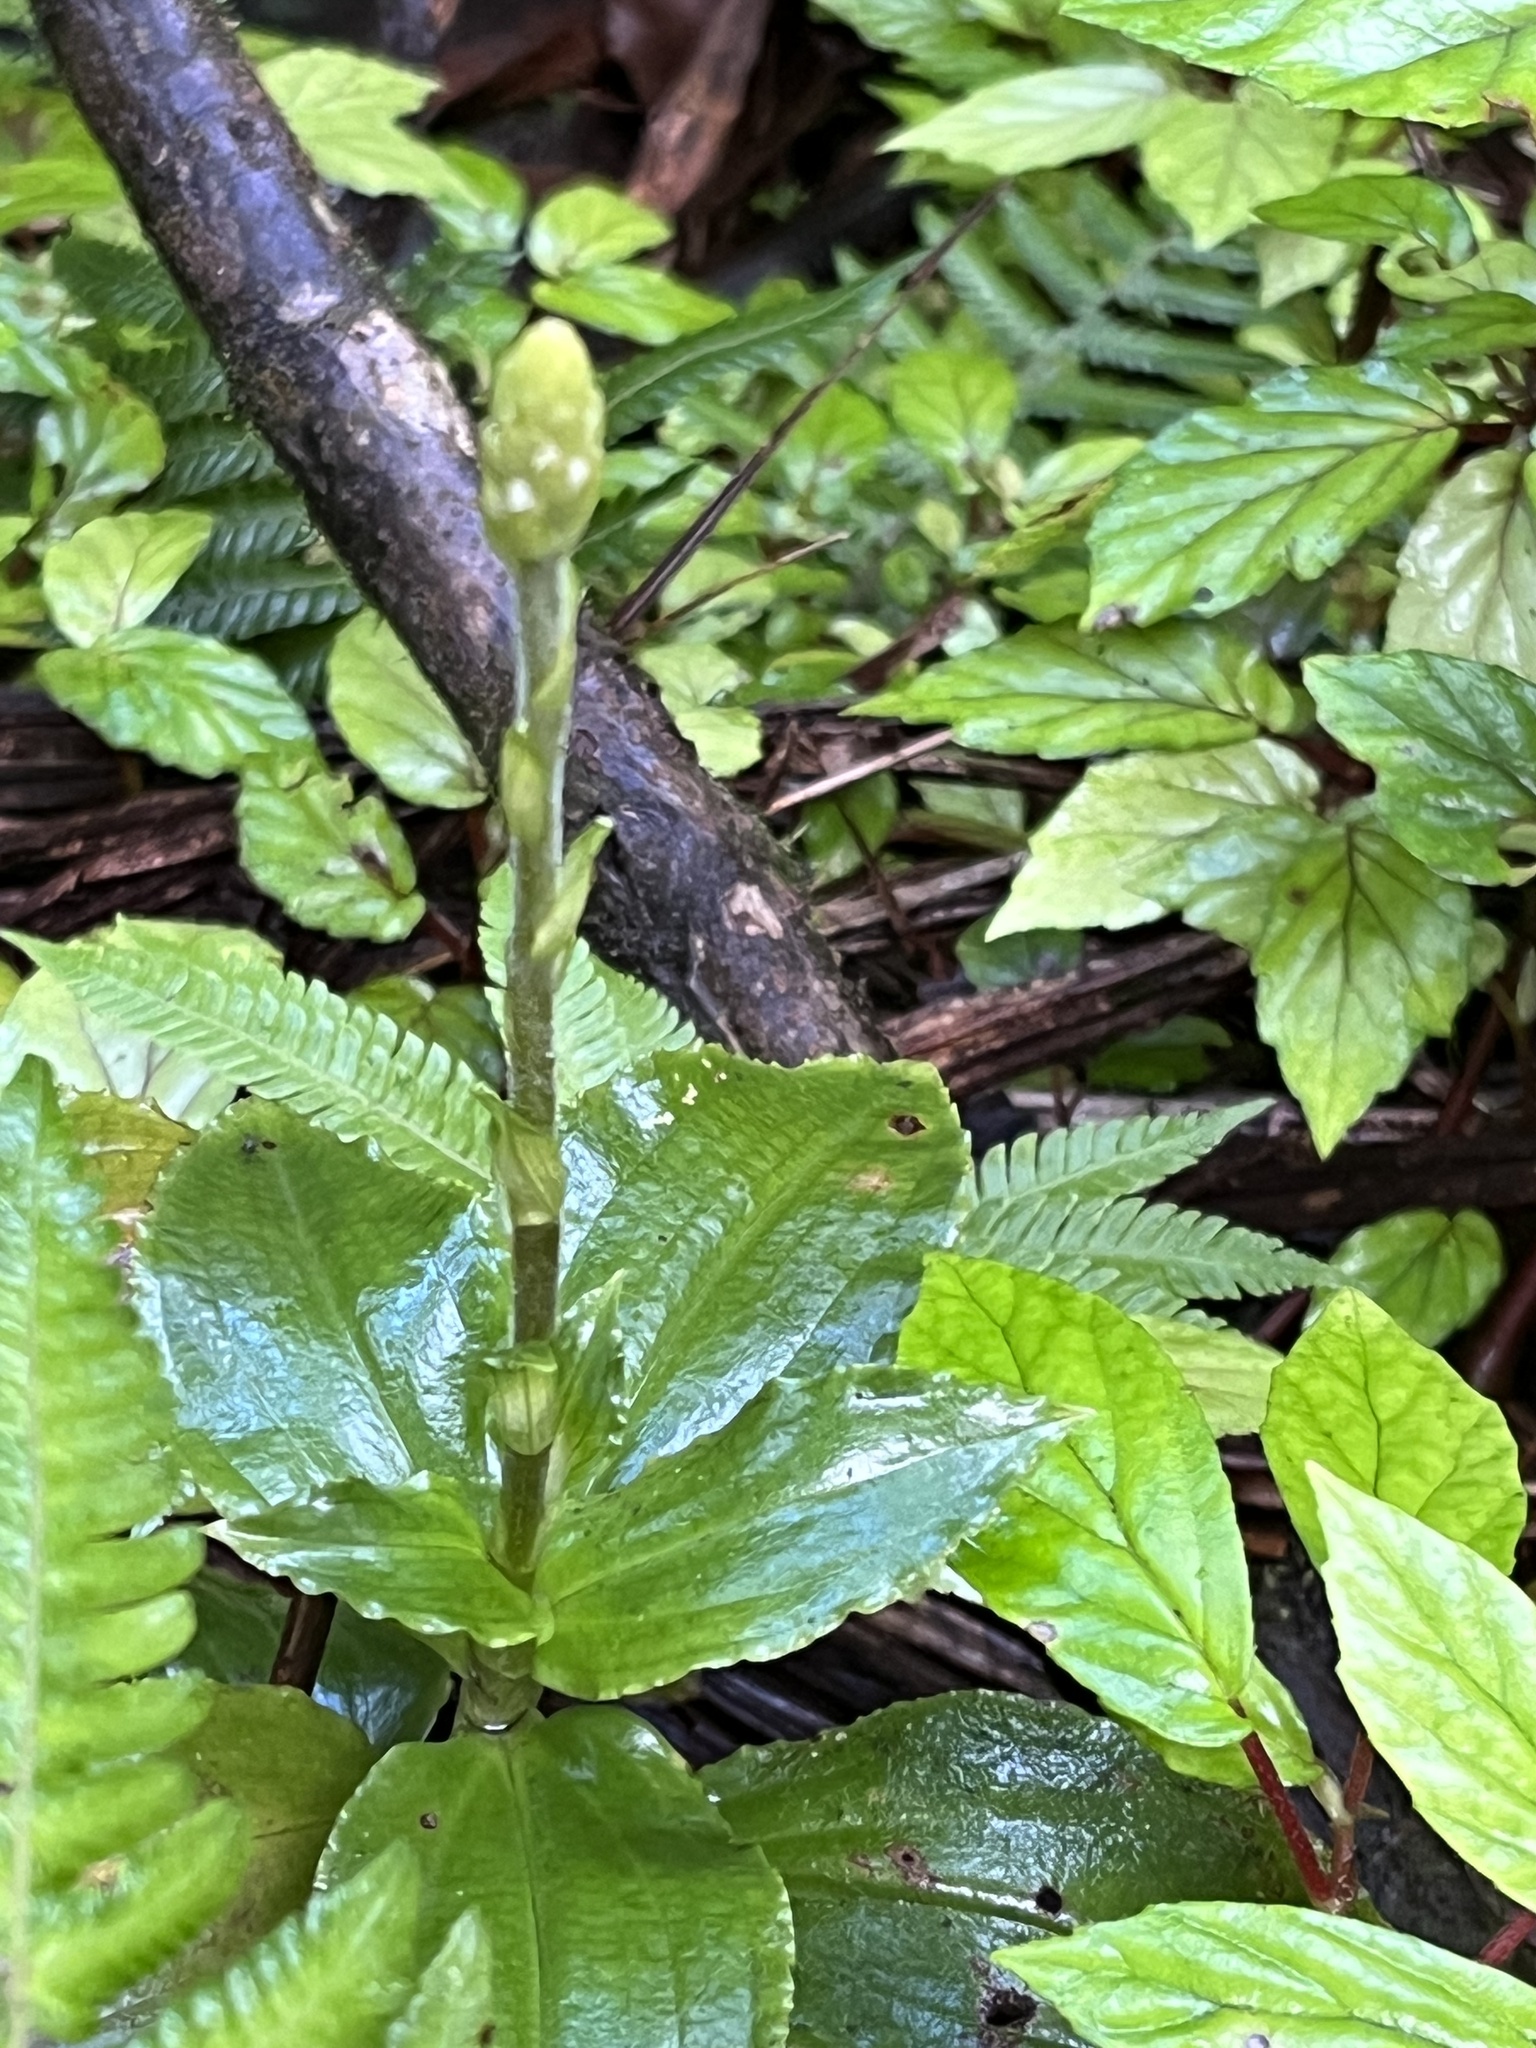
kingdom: Plantae
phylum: Tracheophyta
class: Liliopsida
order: Asparagales
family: Orchidaceae
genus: Microchilus
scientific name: Microchilus plantagineus
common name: Caribbean false helmetorchid
